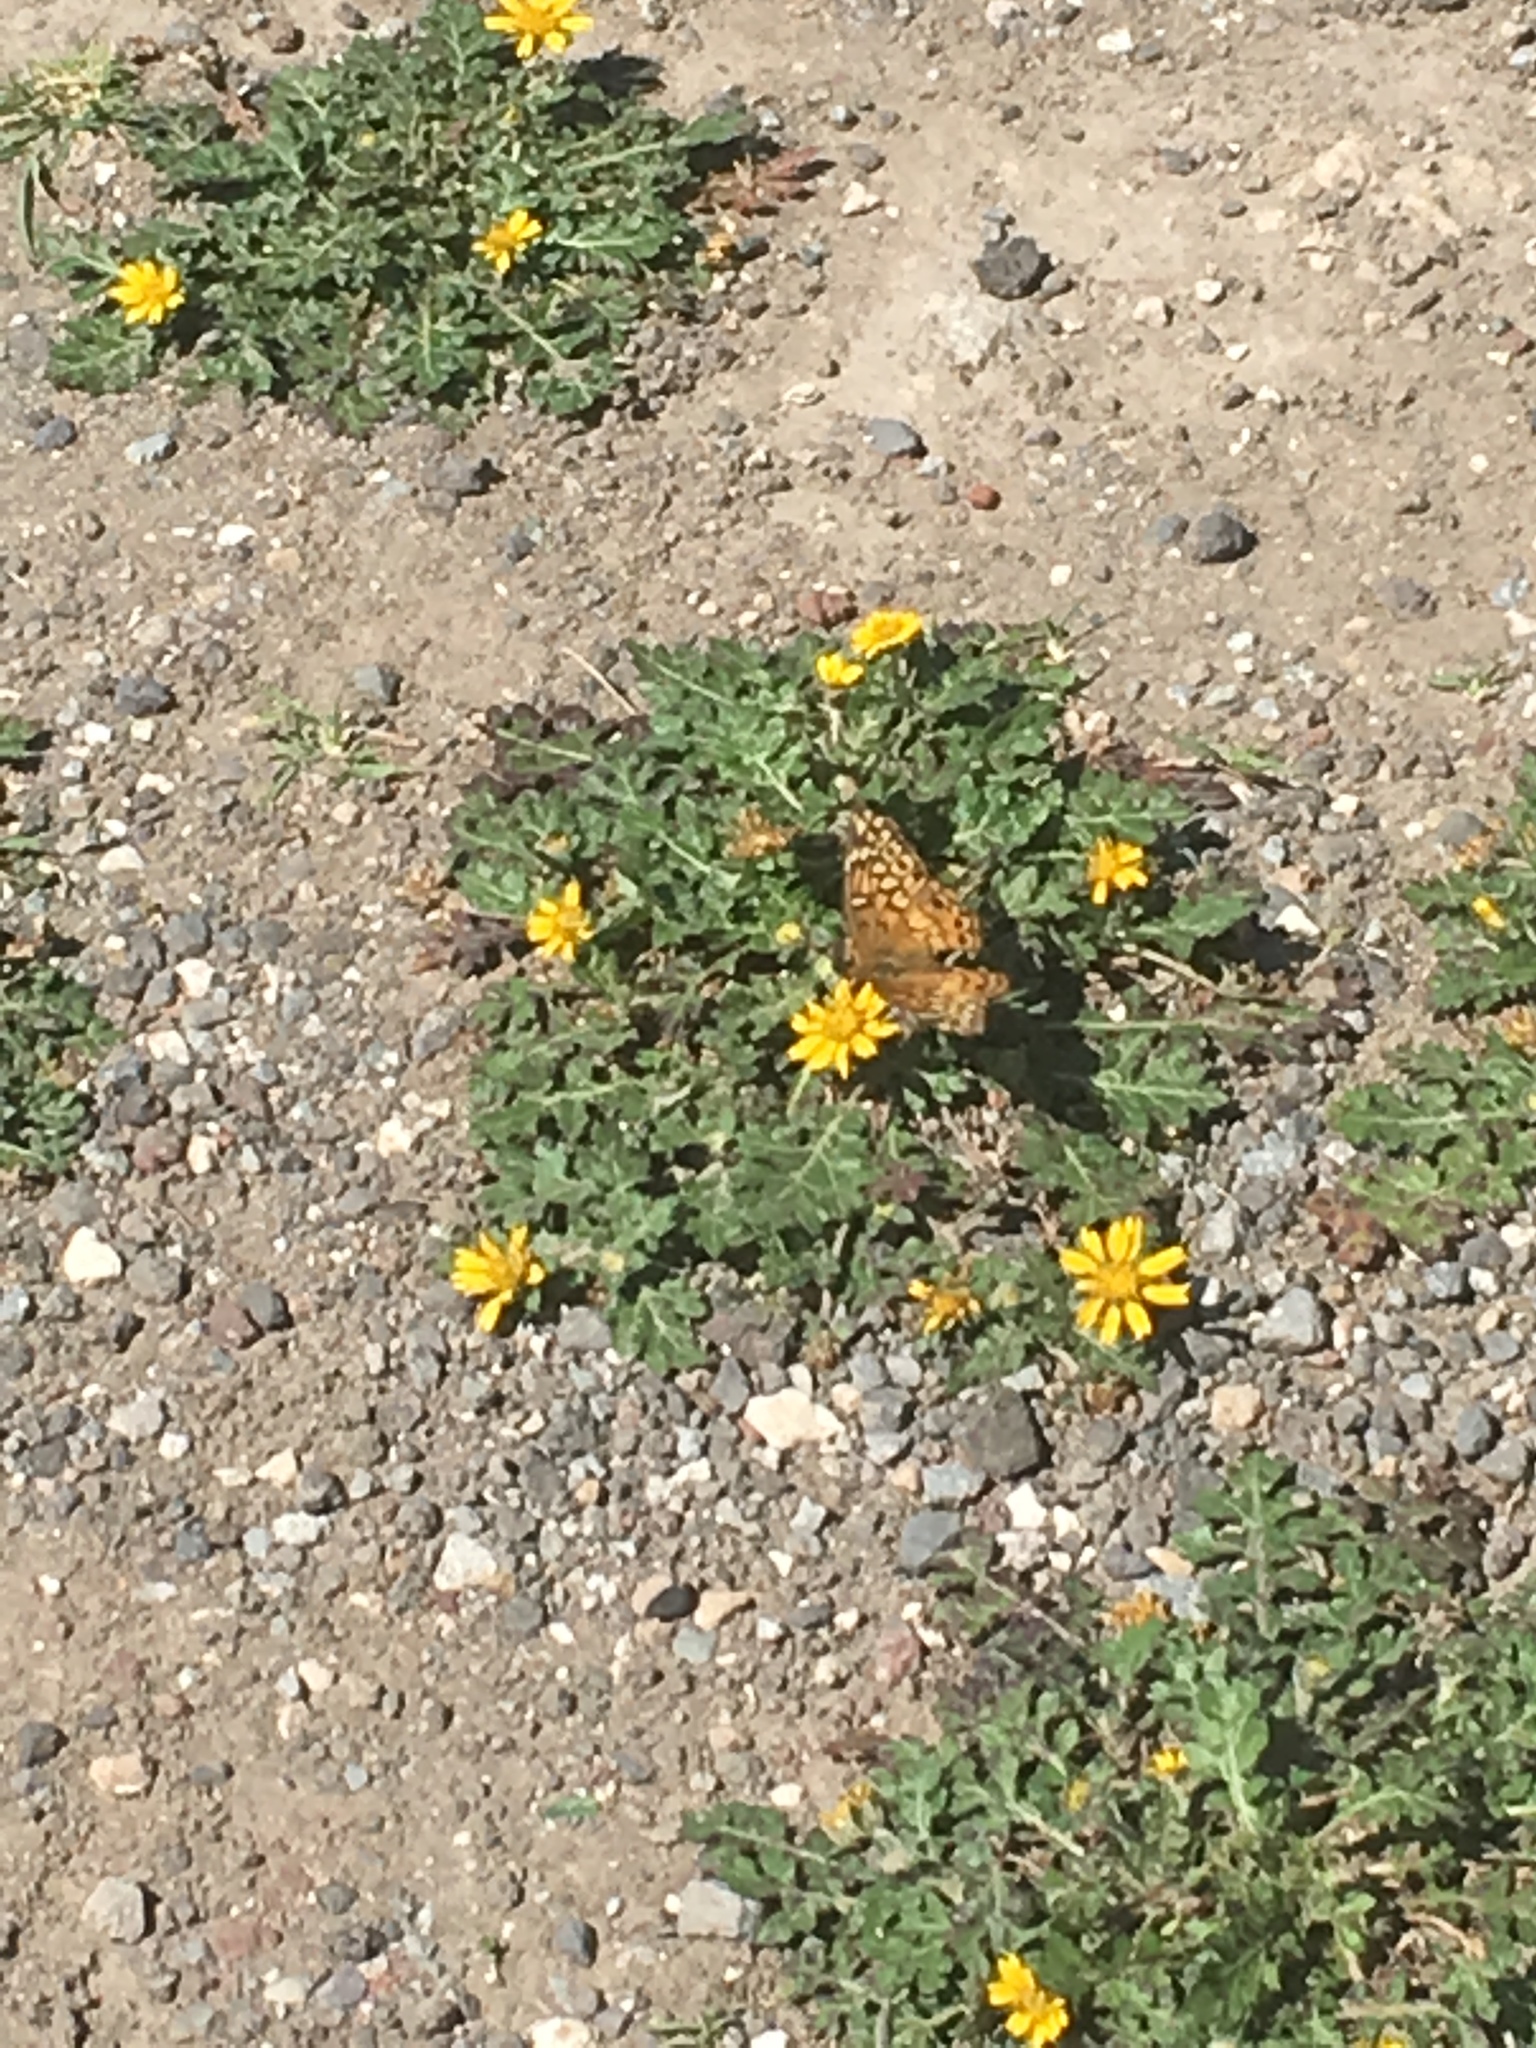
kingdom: Animalia
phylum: Arthropoda
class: Insecta
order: Lepidoptera
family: Nymphalidae
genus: Euptoieta
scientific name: Euptoieta claudia
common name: Variegated fritillary
